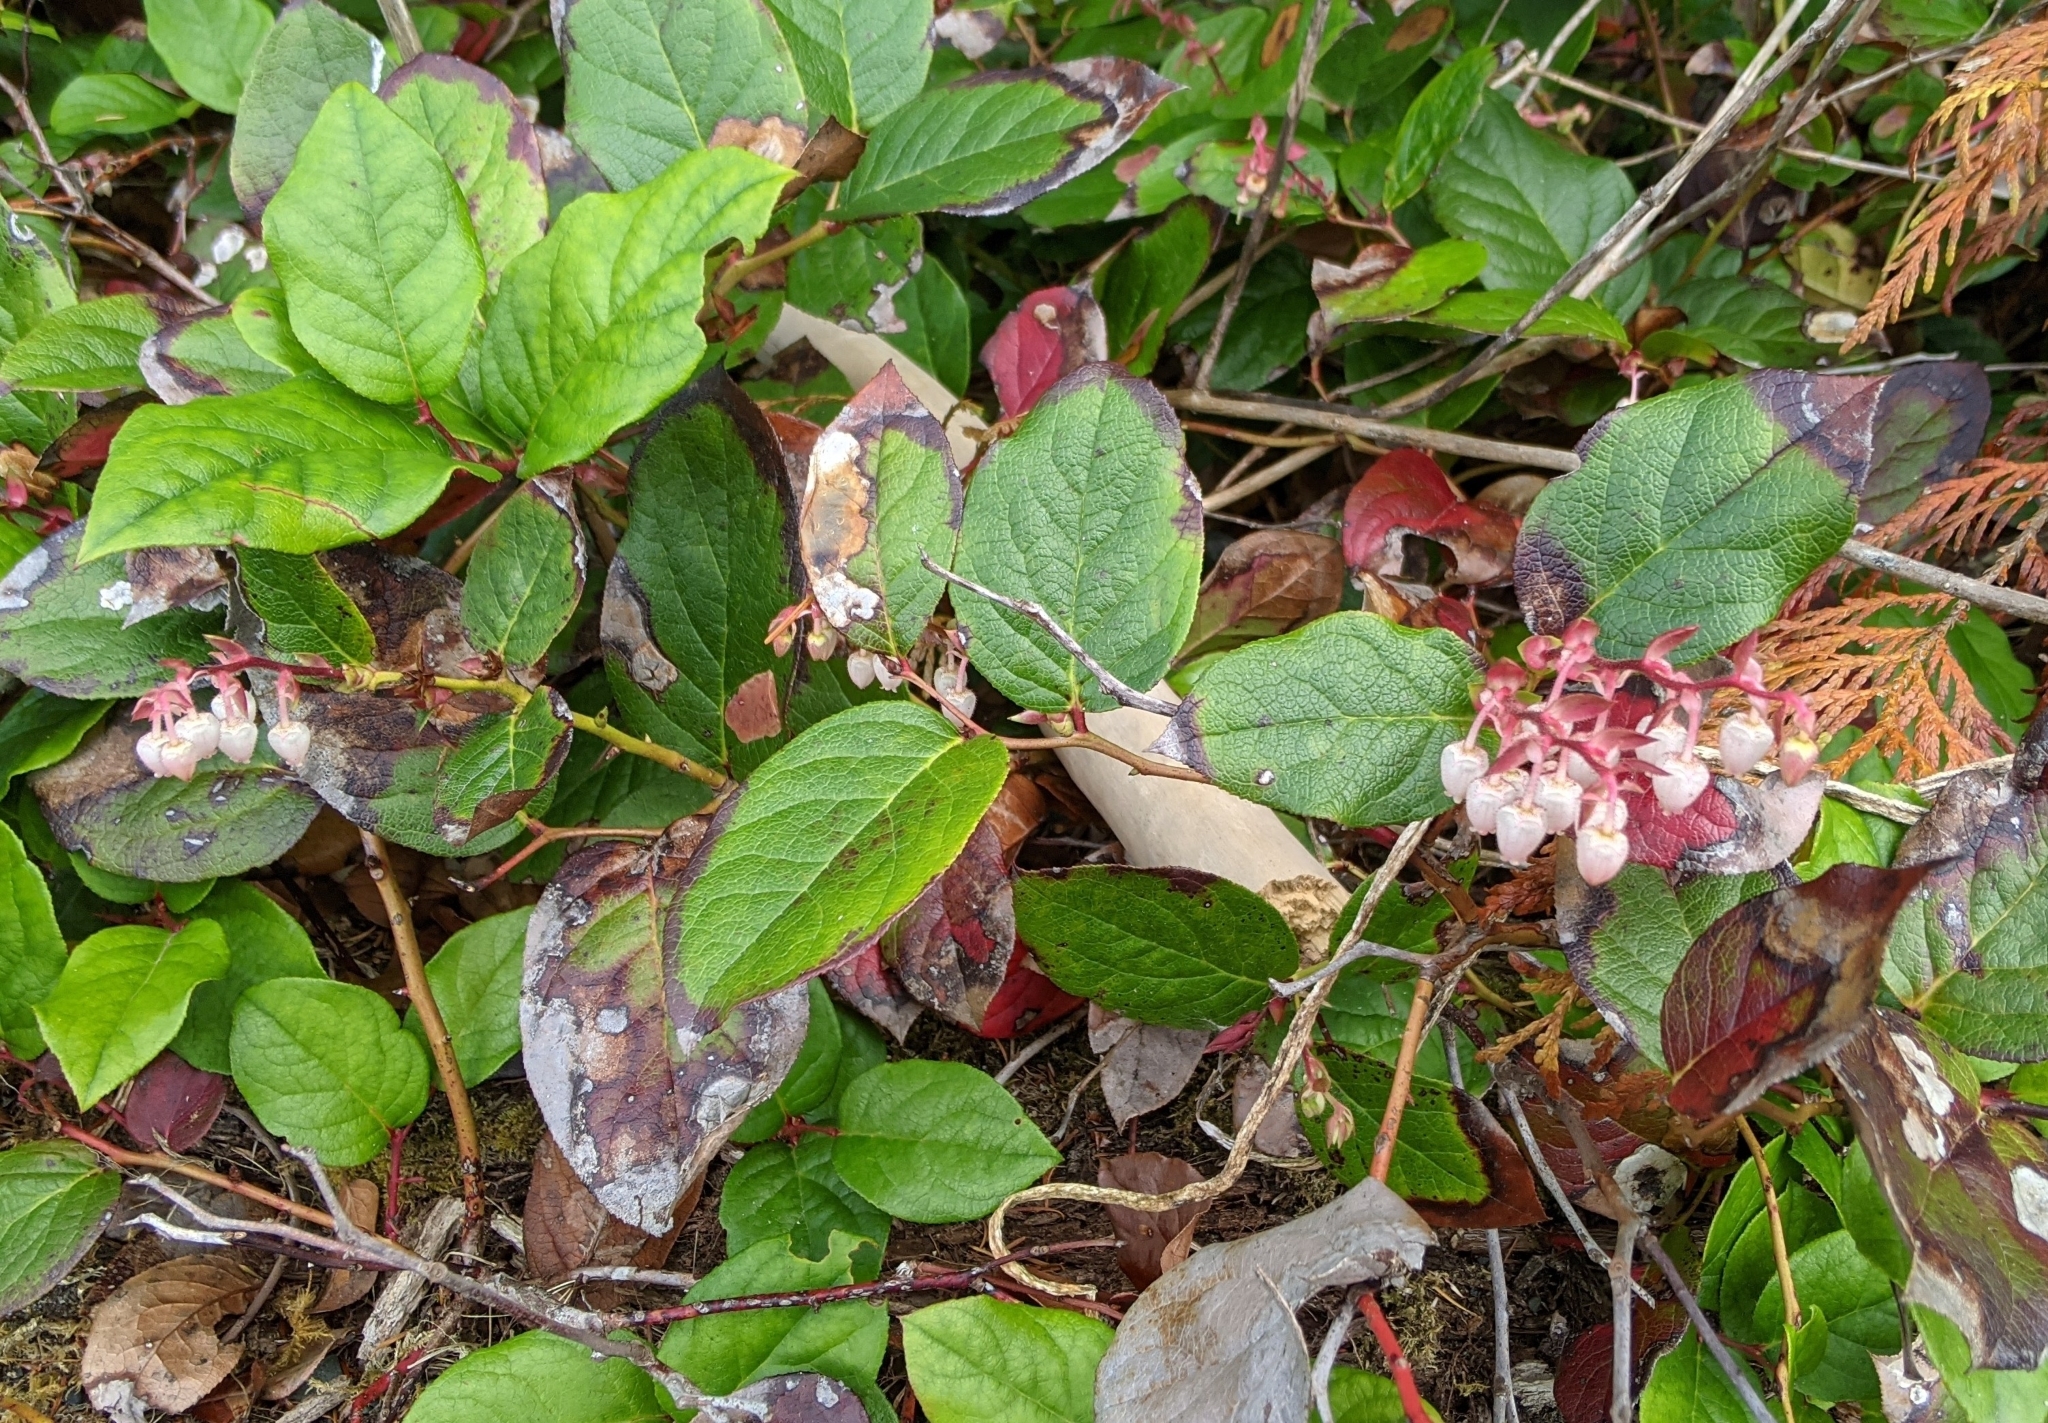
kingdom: Plantae
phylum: Tracheophyta
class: Magnoliopsida
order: Ericales
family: Ericaceae
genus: Gaultheria
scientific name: Gaultheria shallon
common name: Shallon
